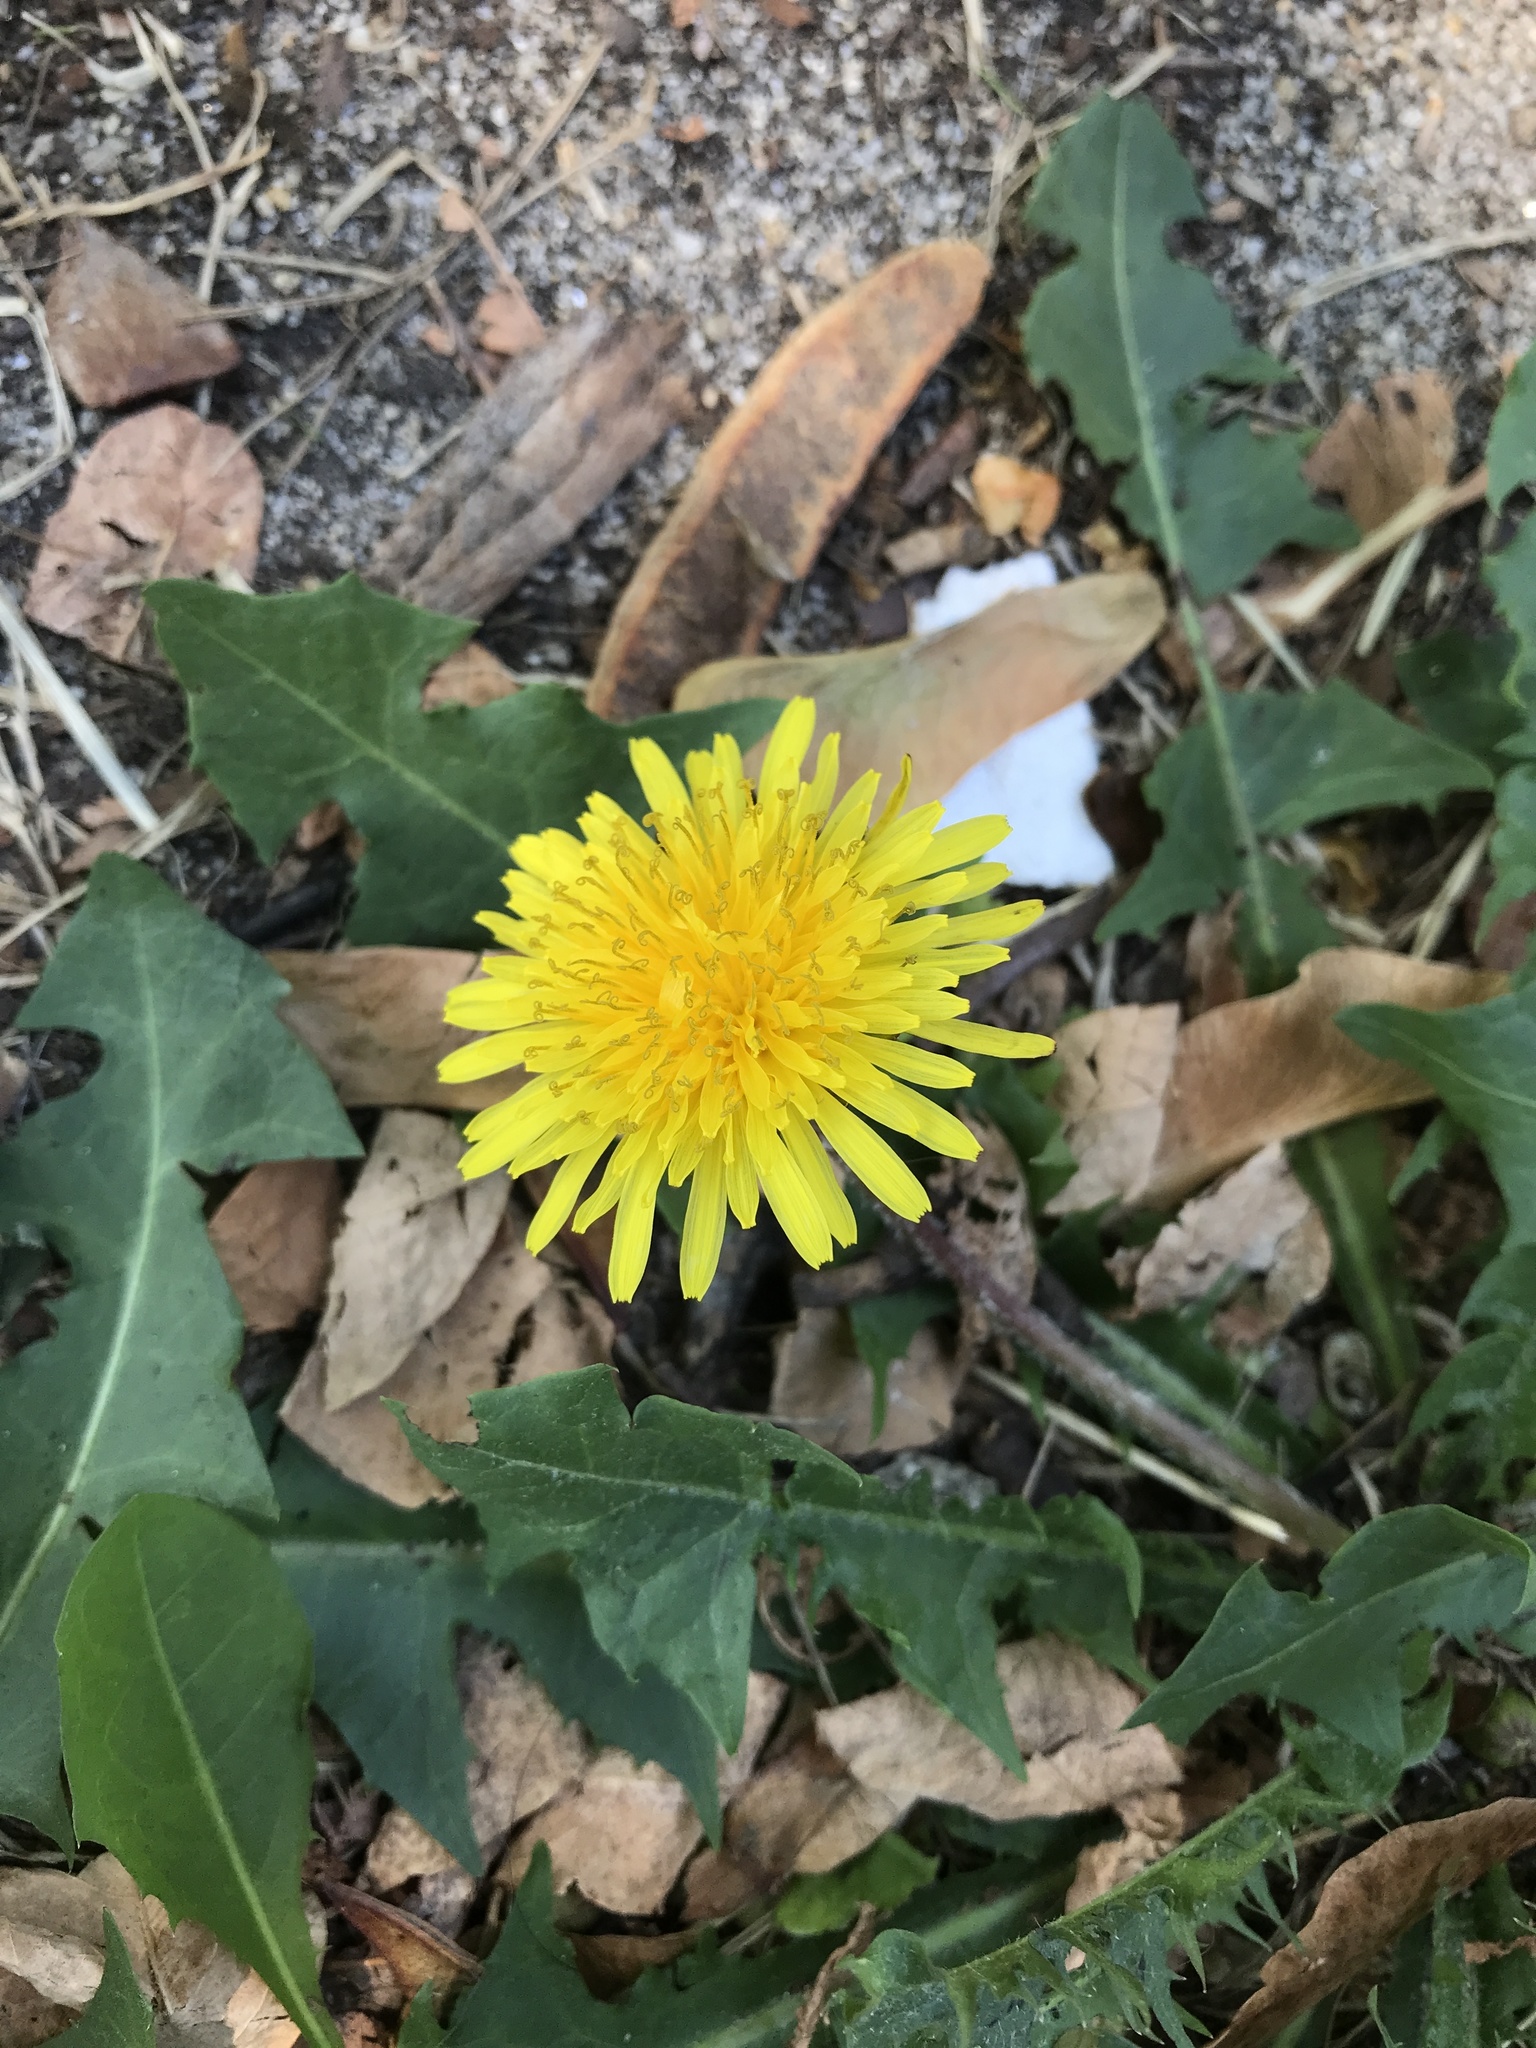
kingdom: Plantae
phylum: Tracheophyta
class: Magnoliopsida
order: Asterales
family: Asteraceae
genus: Taraxacum
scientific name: Taraxacum officinale
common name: Common dandelion
